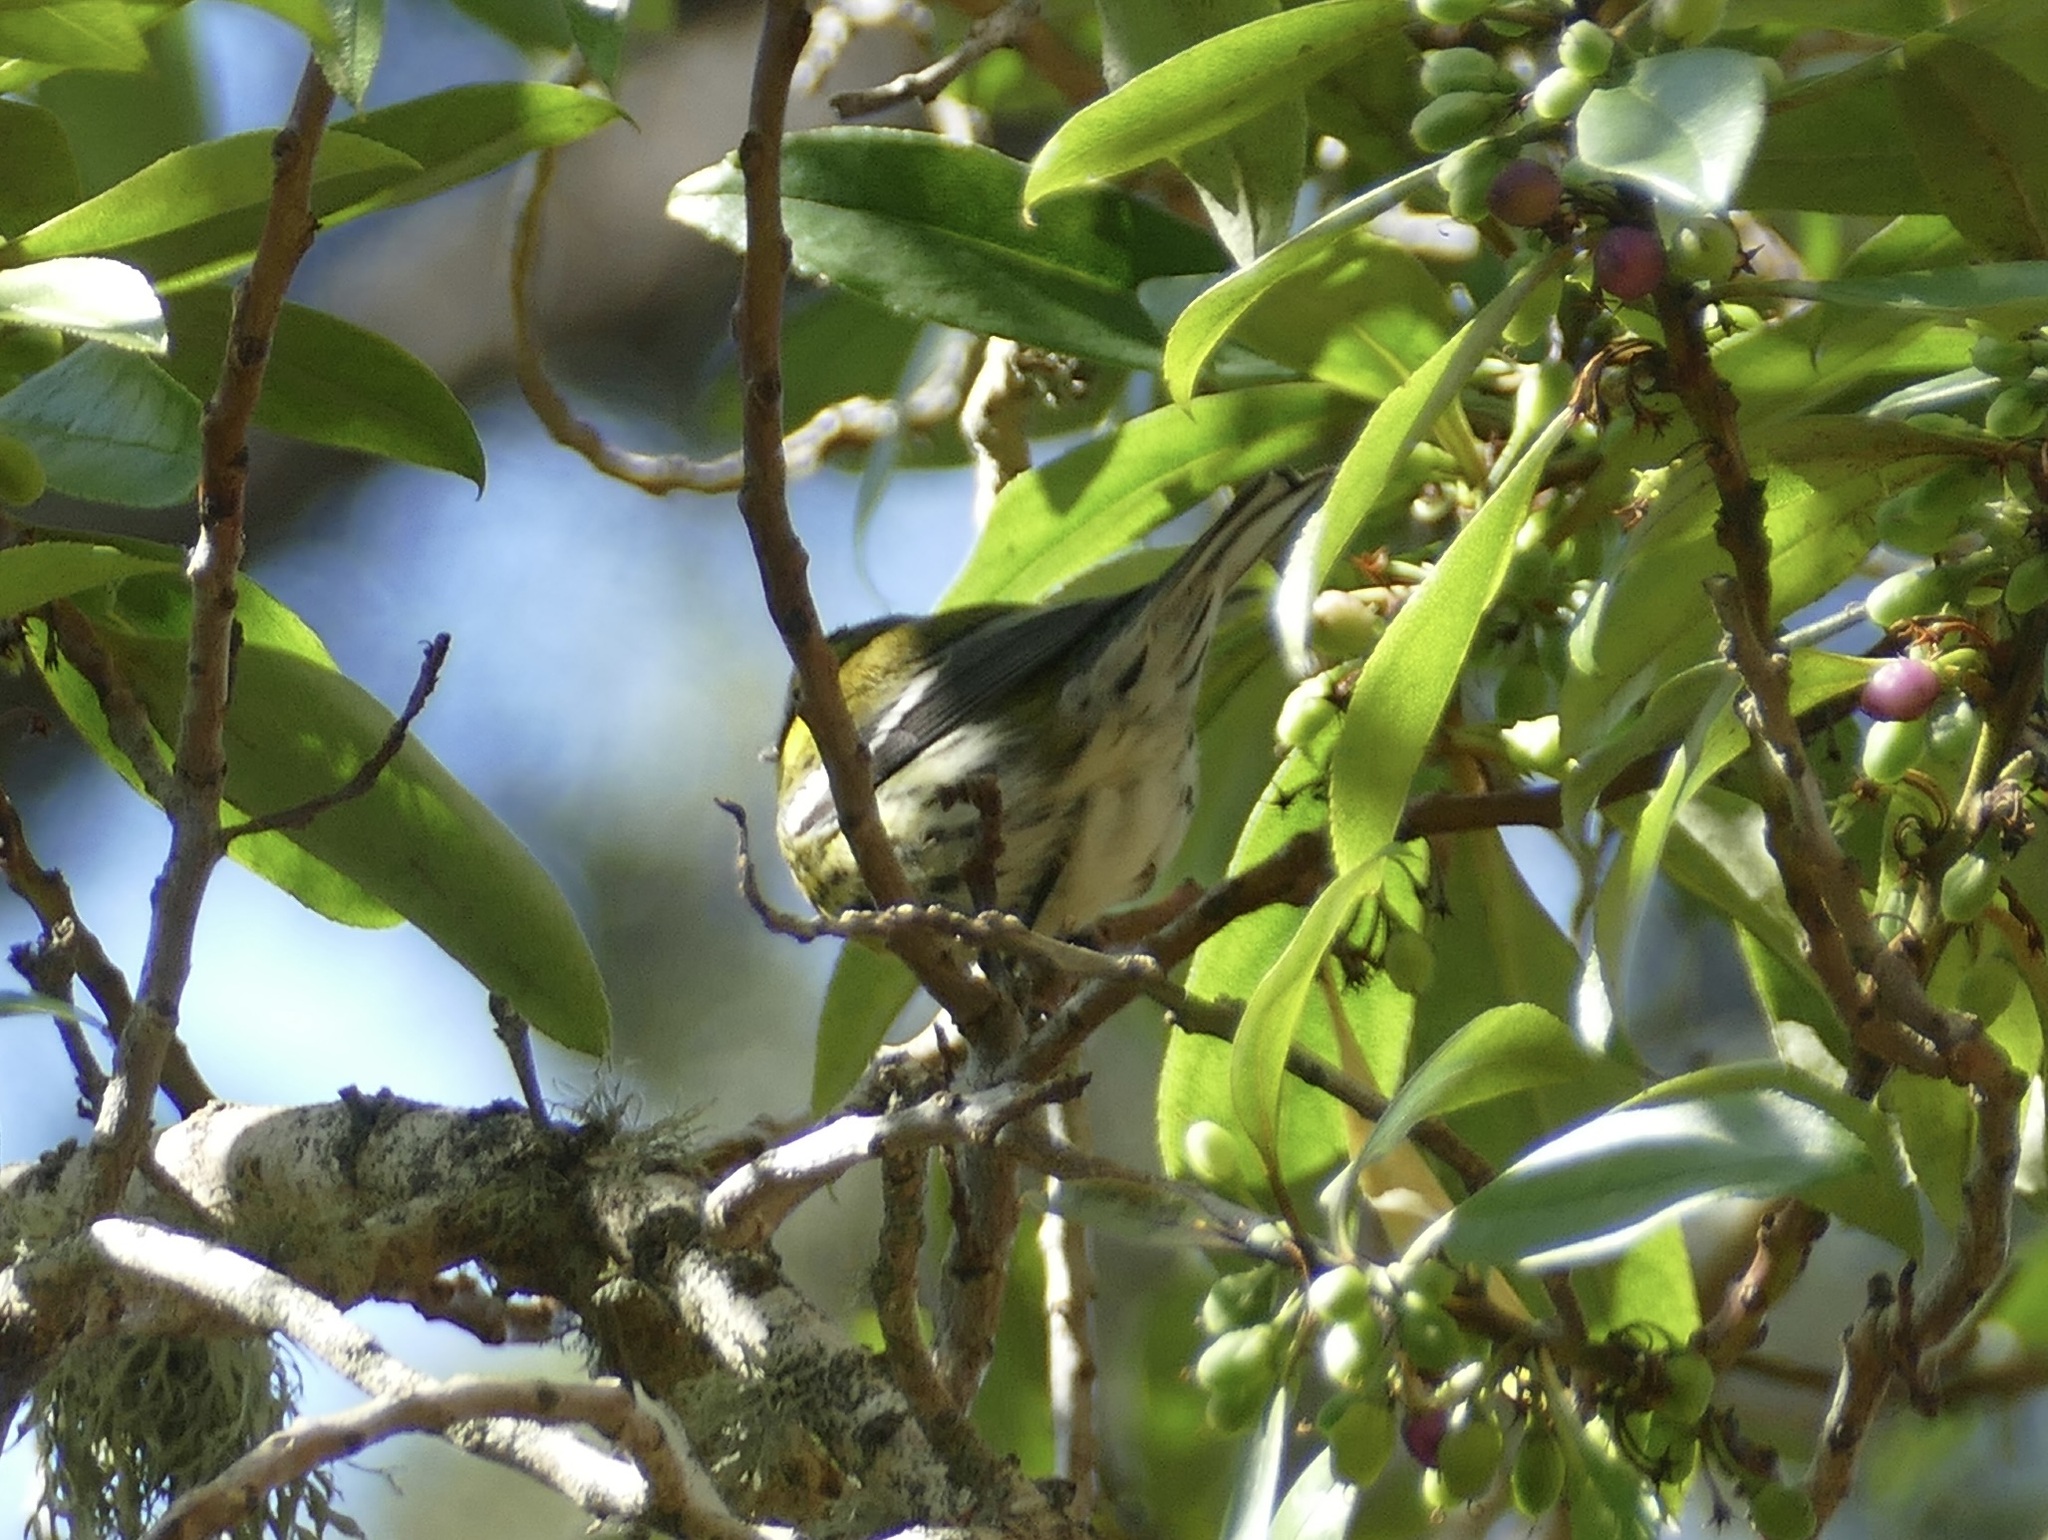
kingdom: Animalia
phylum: Chordata
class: Aves
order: Passeriformes
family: Parulidae
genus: Setophaga
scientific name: Setophaga townsendi
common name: Townsend's warbler
